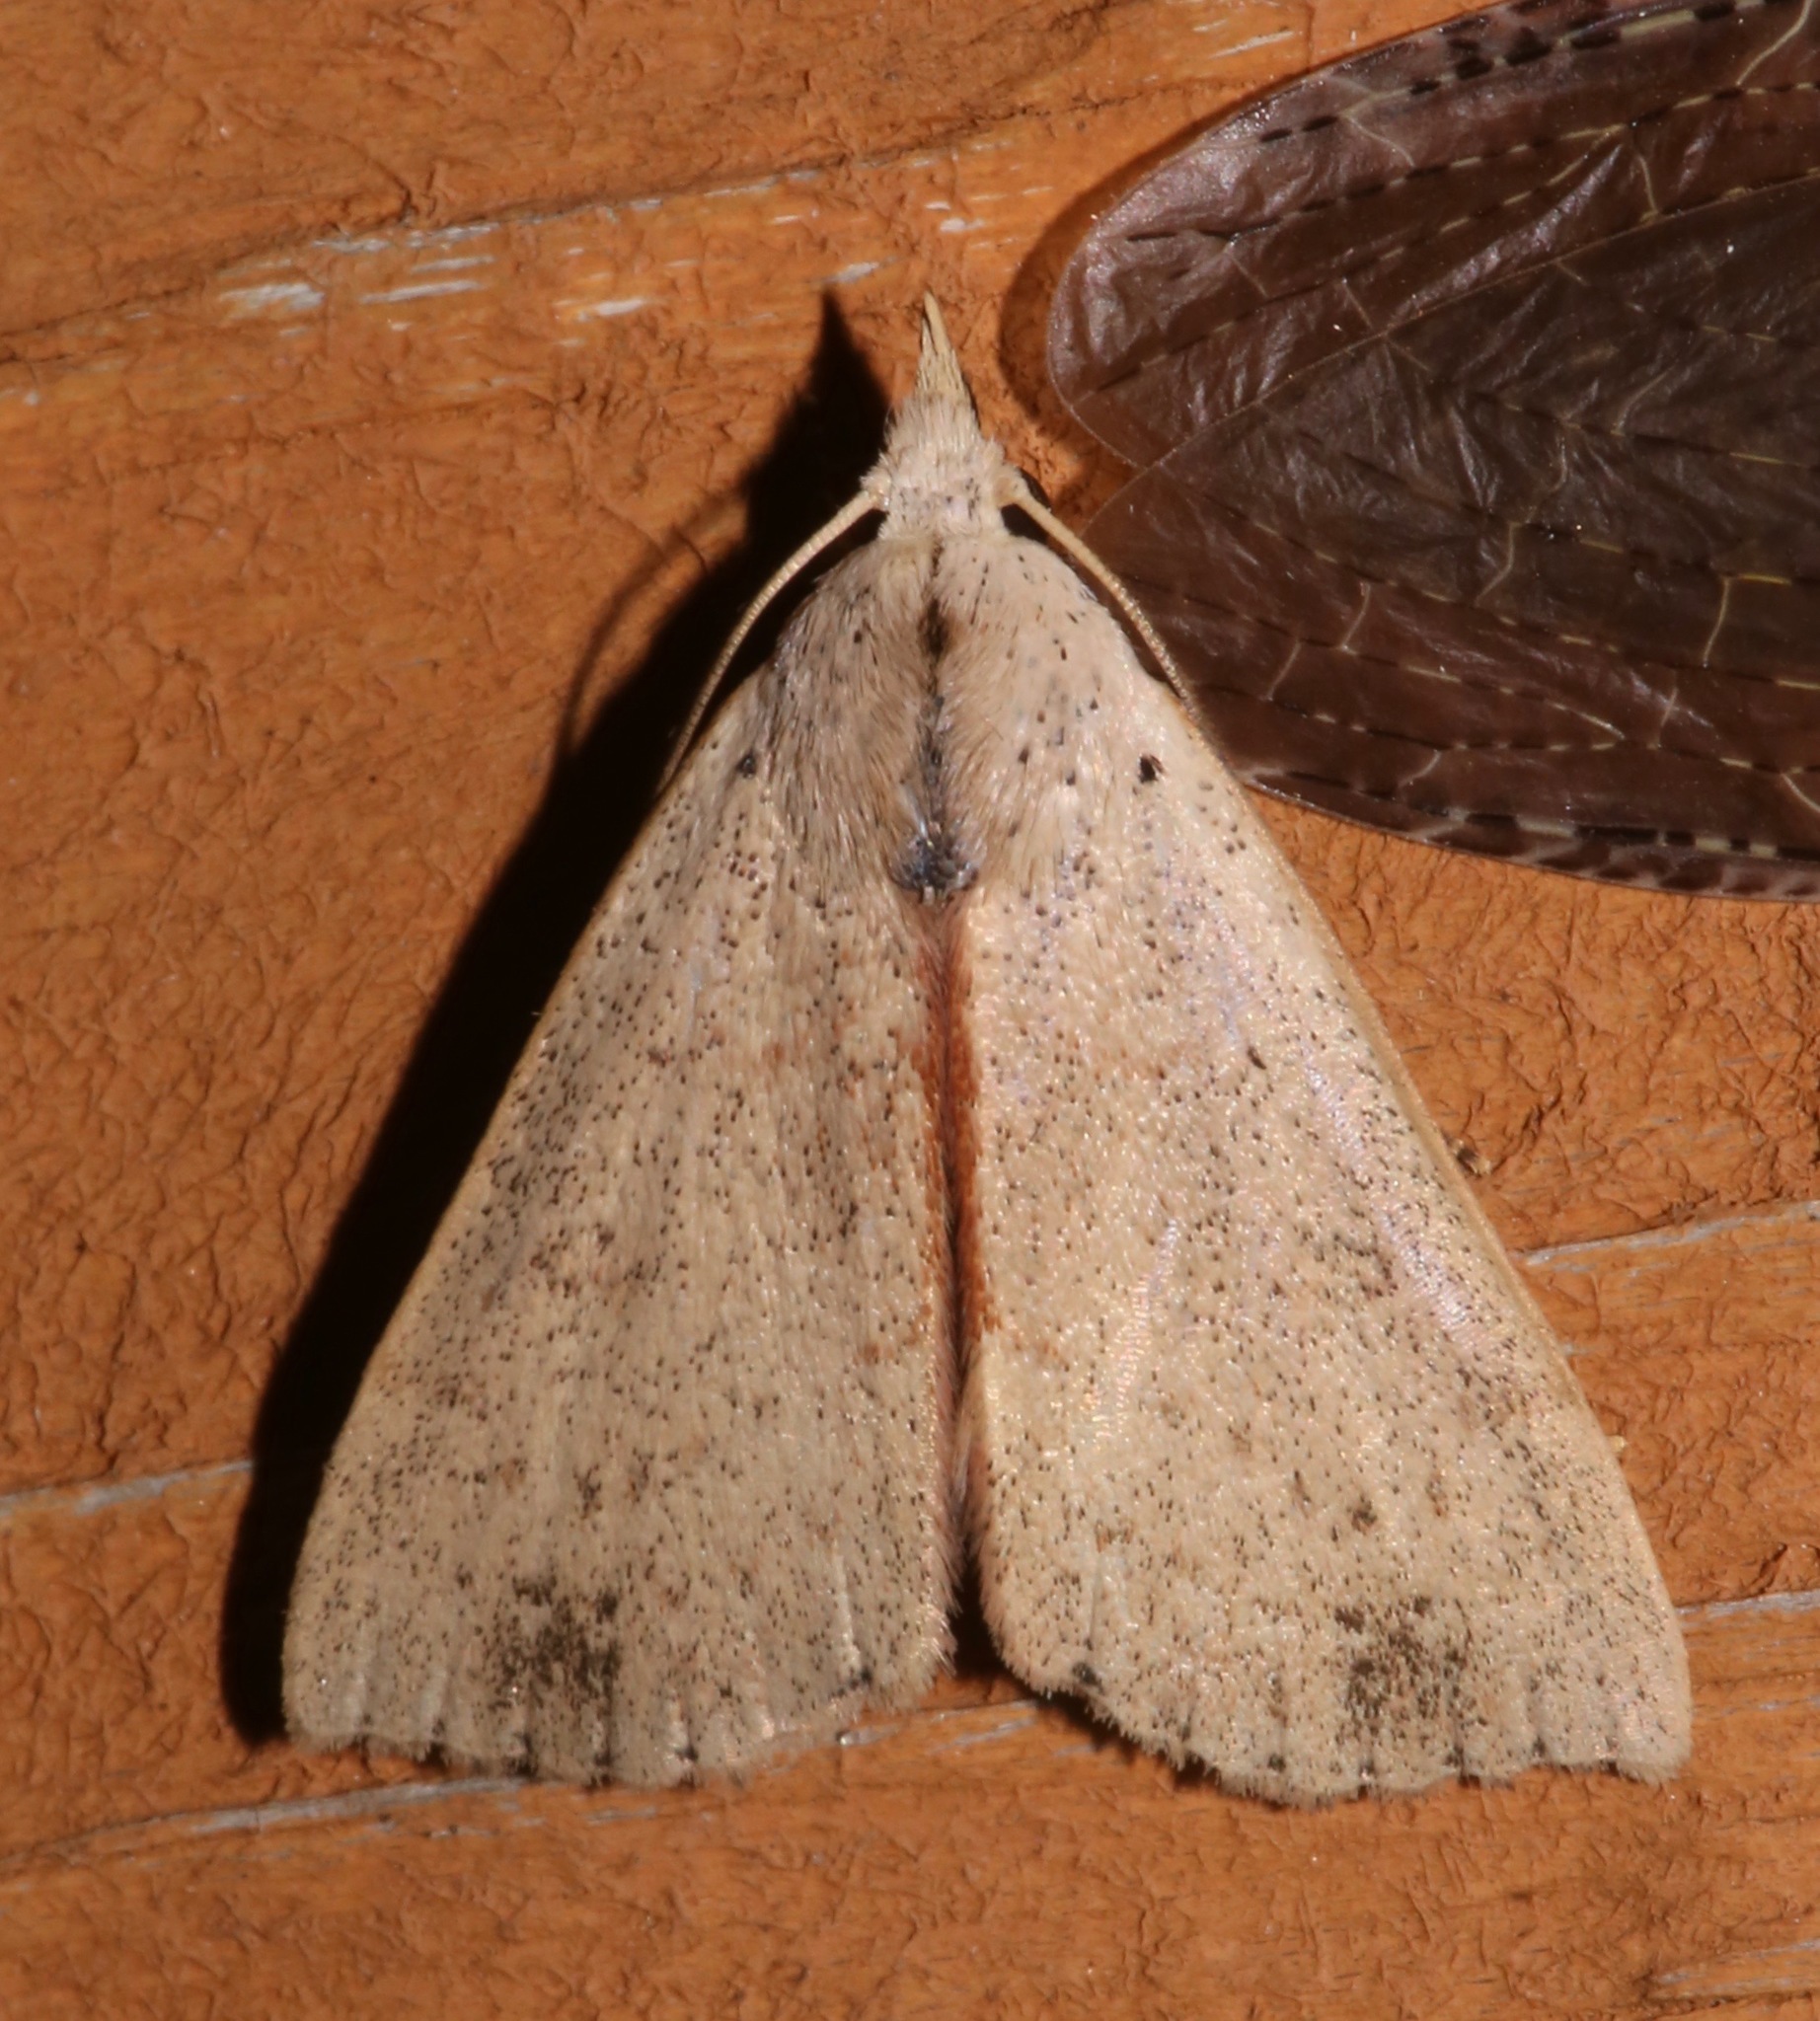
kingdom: Animalia
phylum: Arthropoda
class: Insecta
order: Lepidoptera
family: Erebidae
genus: Scolecocampa
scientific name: Scolecocampa liburna
